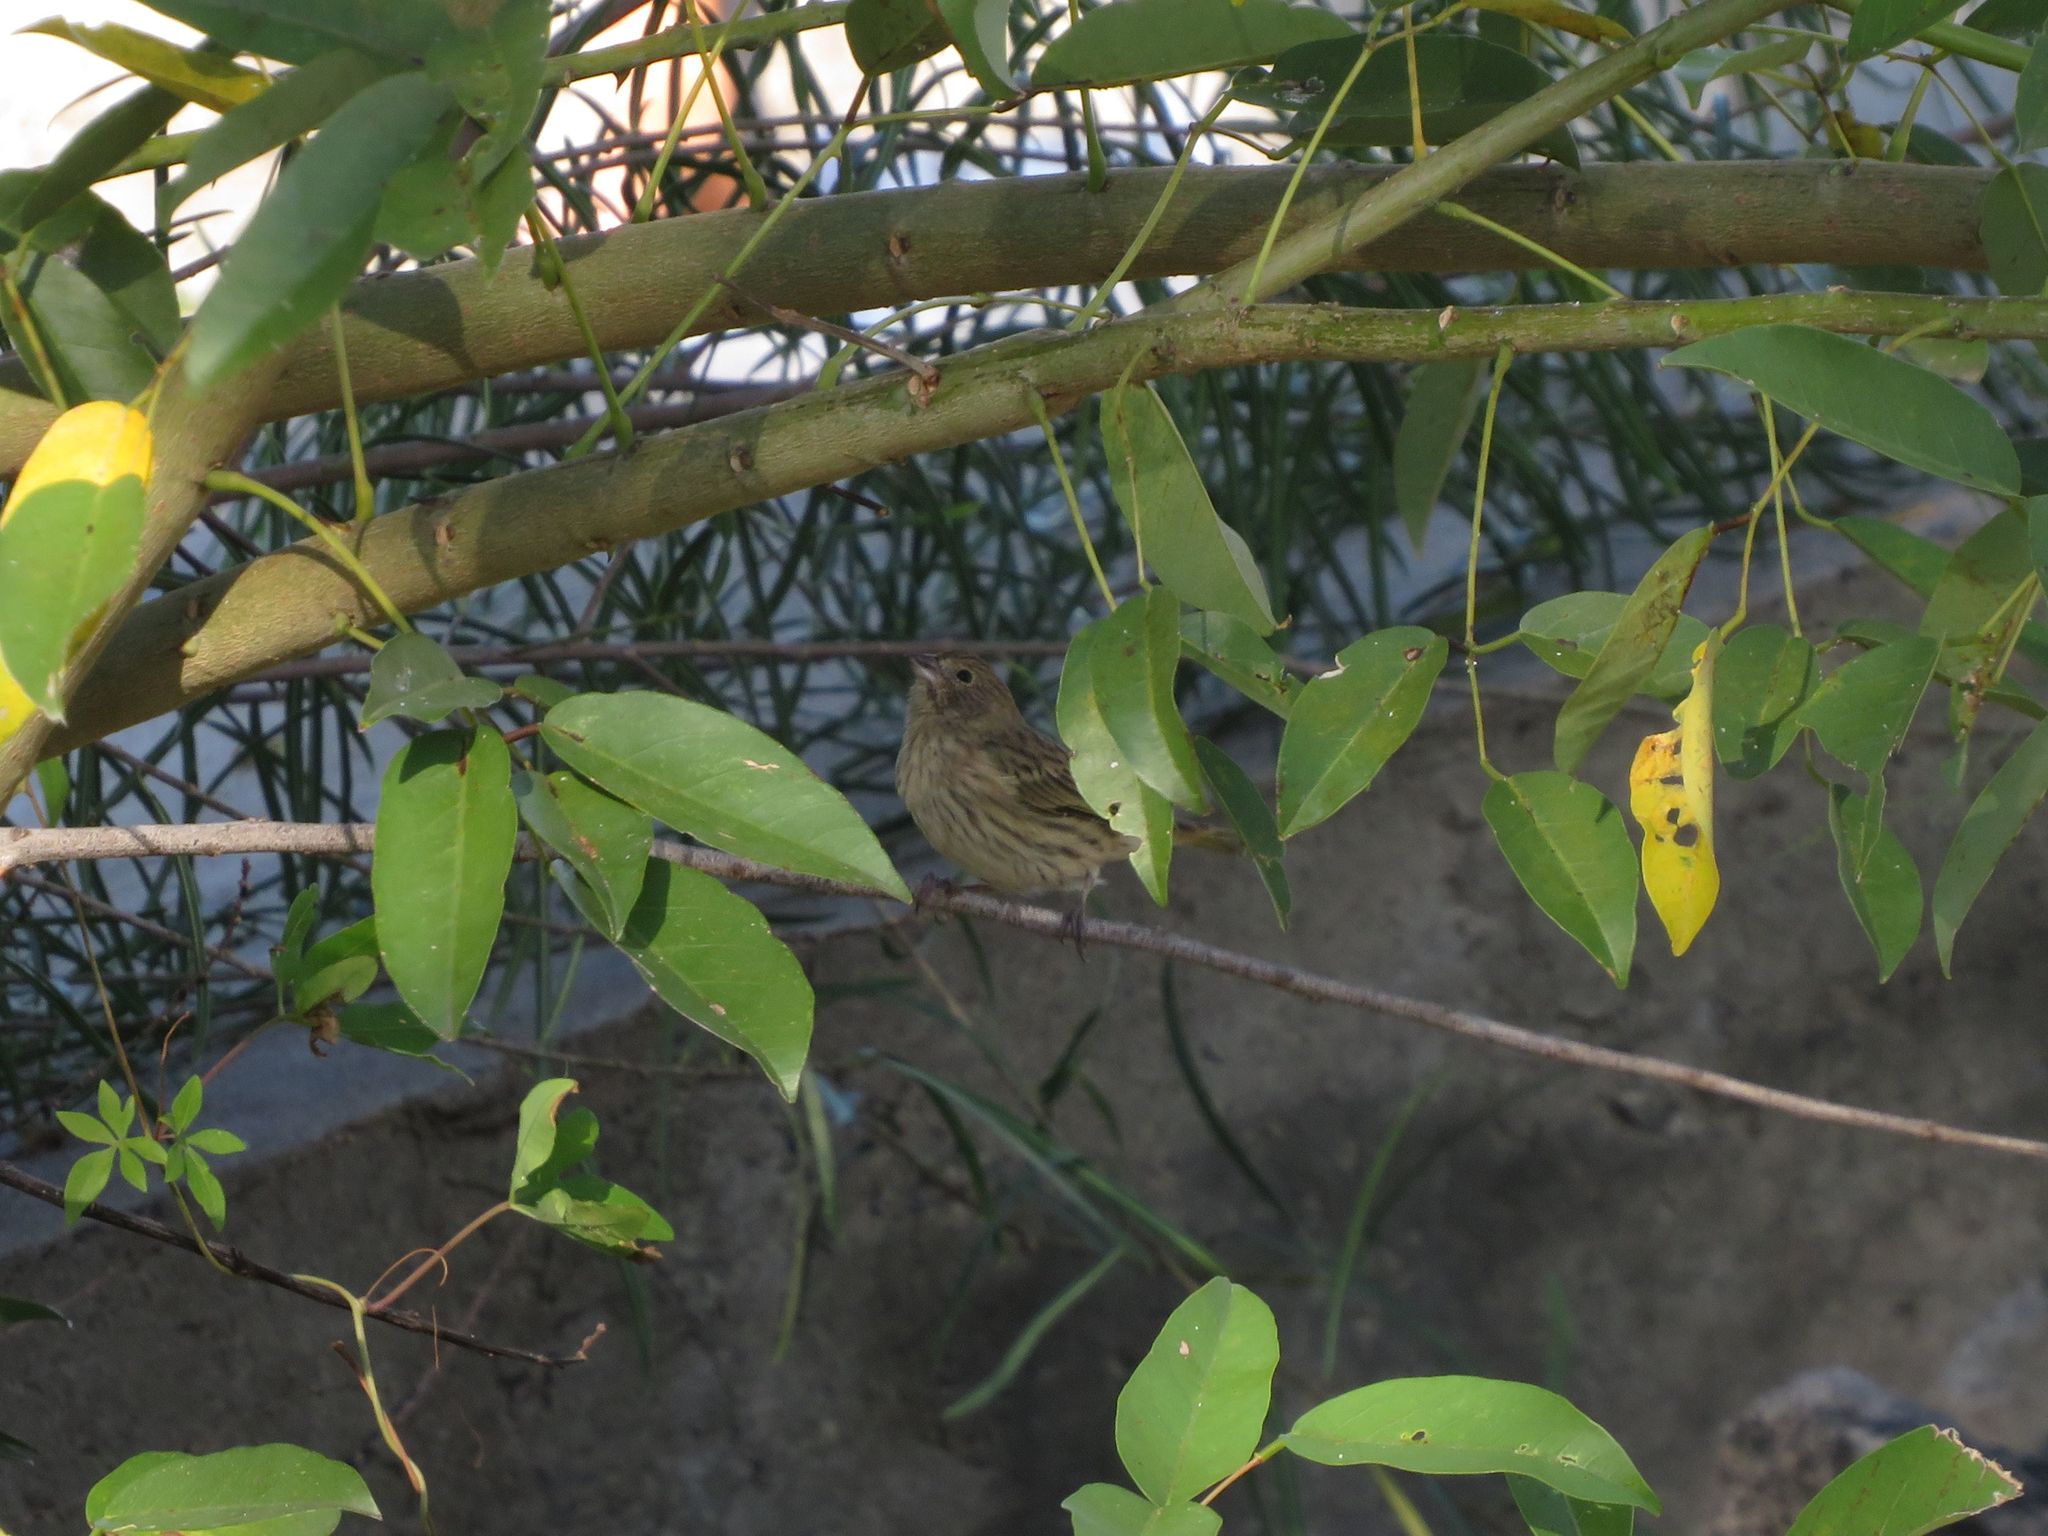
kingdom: Animalia
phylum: Chordata
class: Aves
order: Passeriformes
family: Thraupidae
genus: Sicalis
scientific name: Sicalis flaveola
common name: Saffron finch
